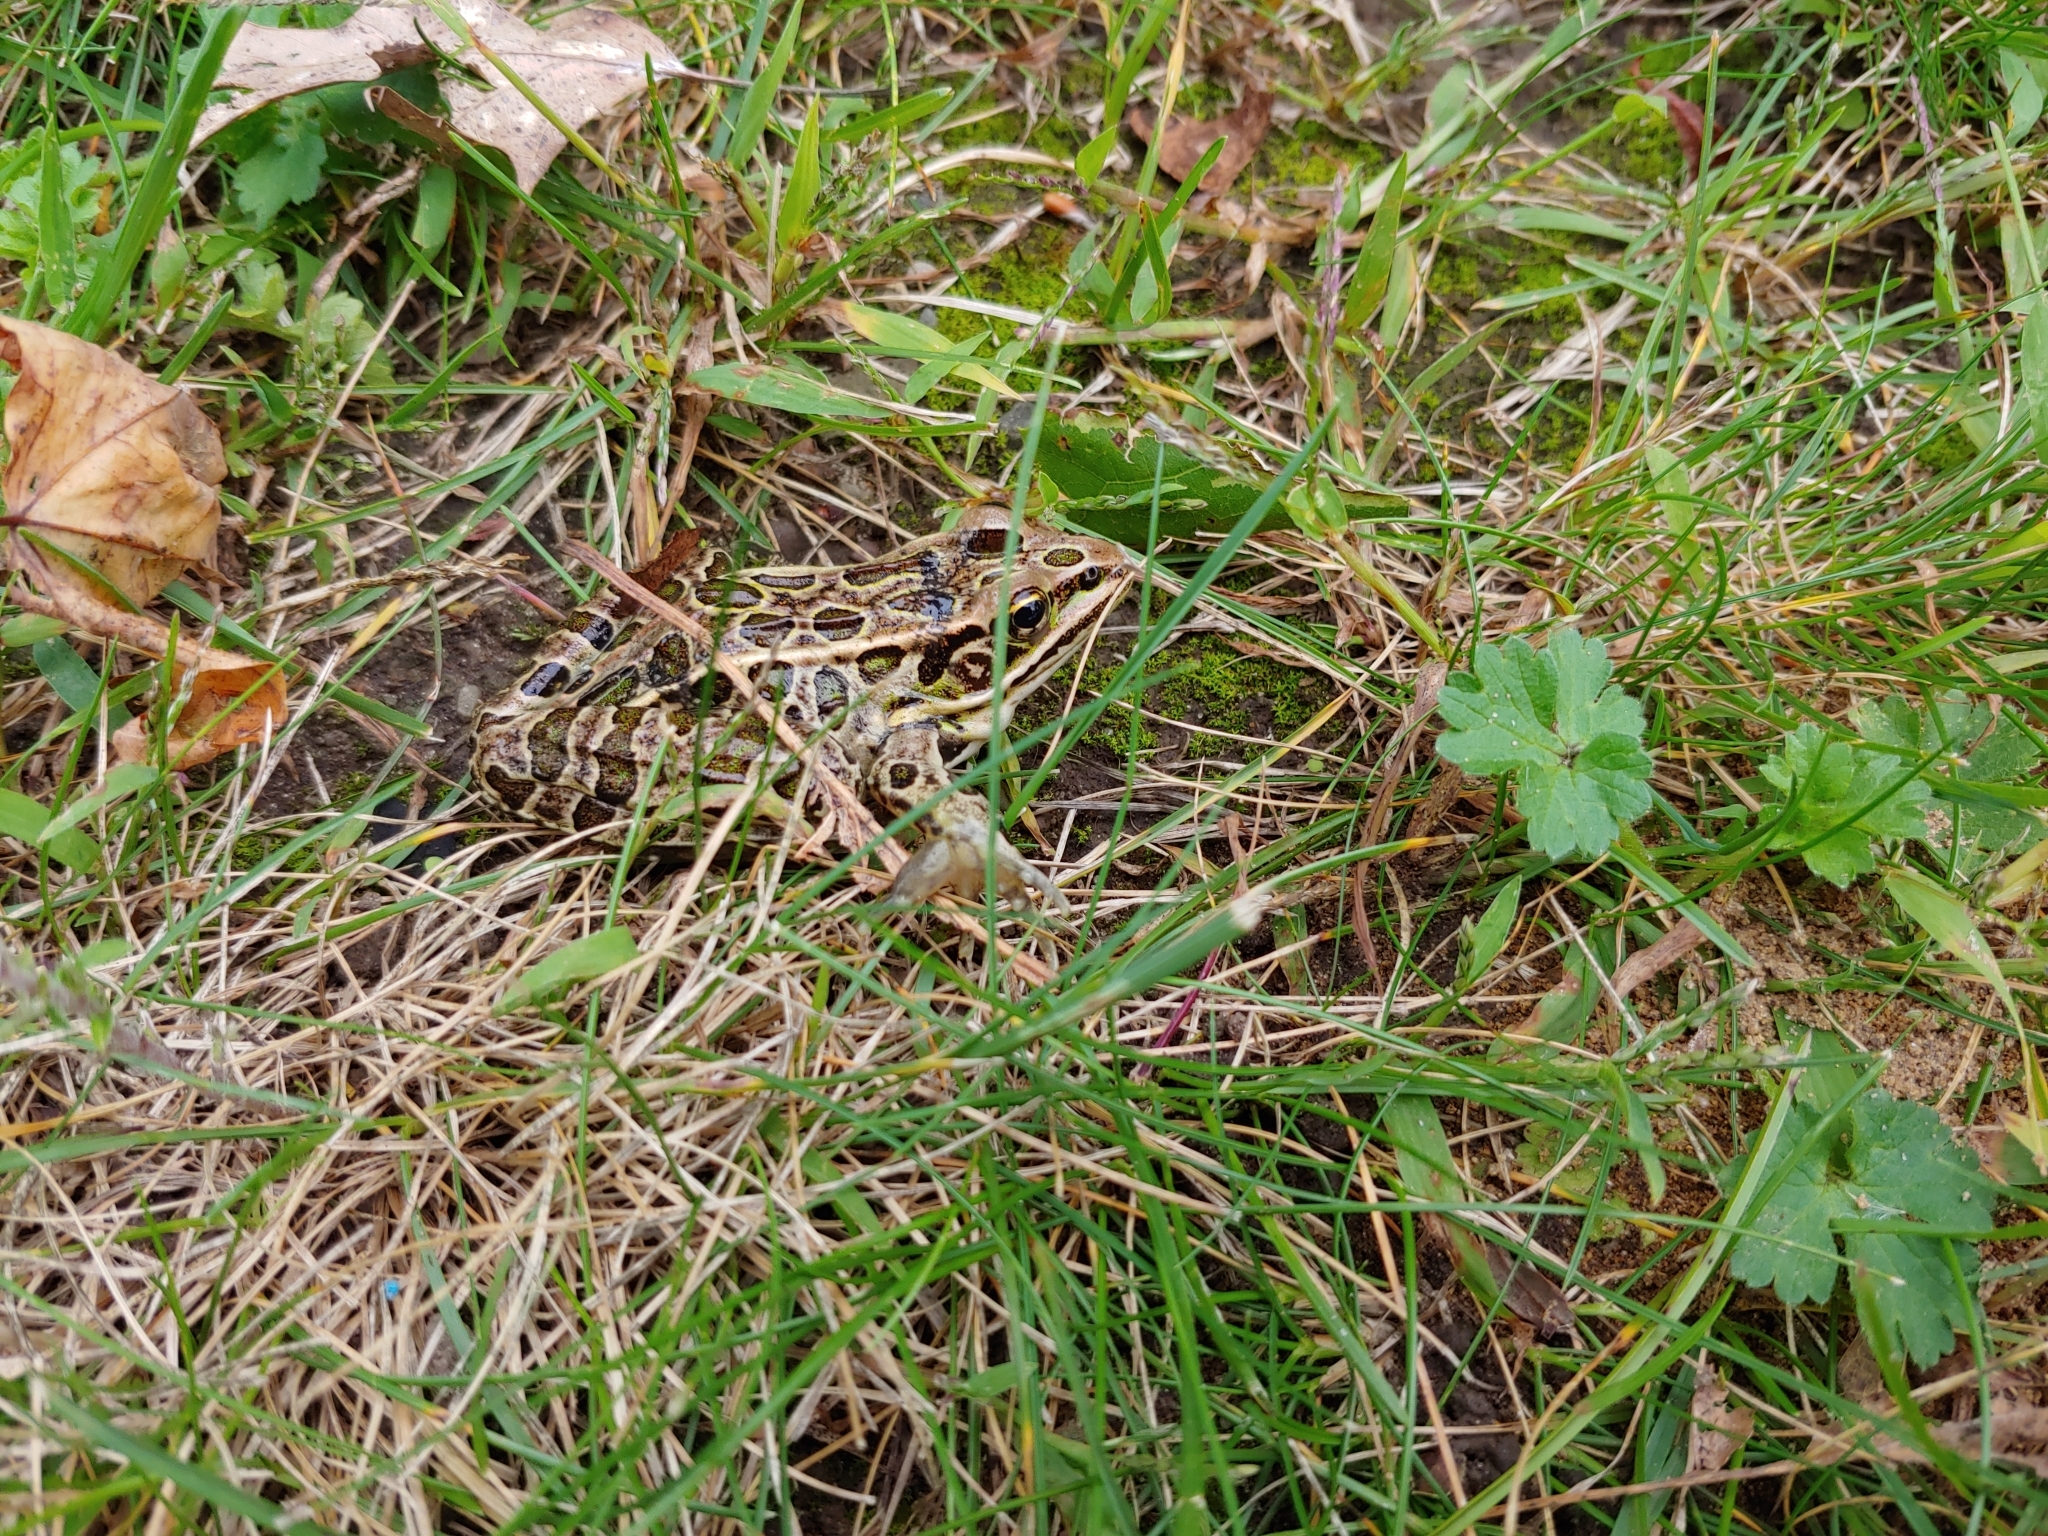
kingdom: Animalia
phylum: Chordata
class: Amphibia
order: Anura
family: Ranidae
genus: Lithobates
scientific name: Lithobates pipiens
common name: Northern leopard frog
